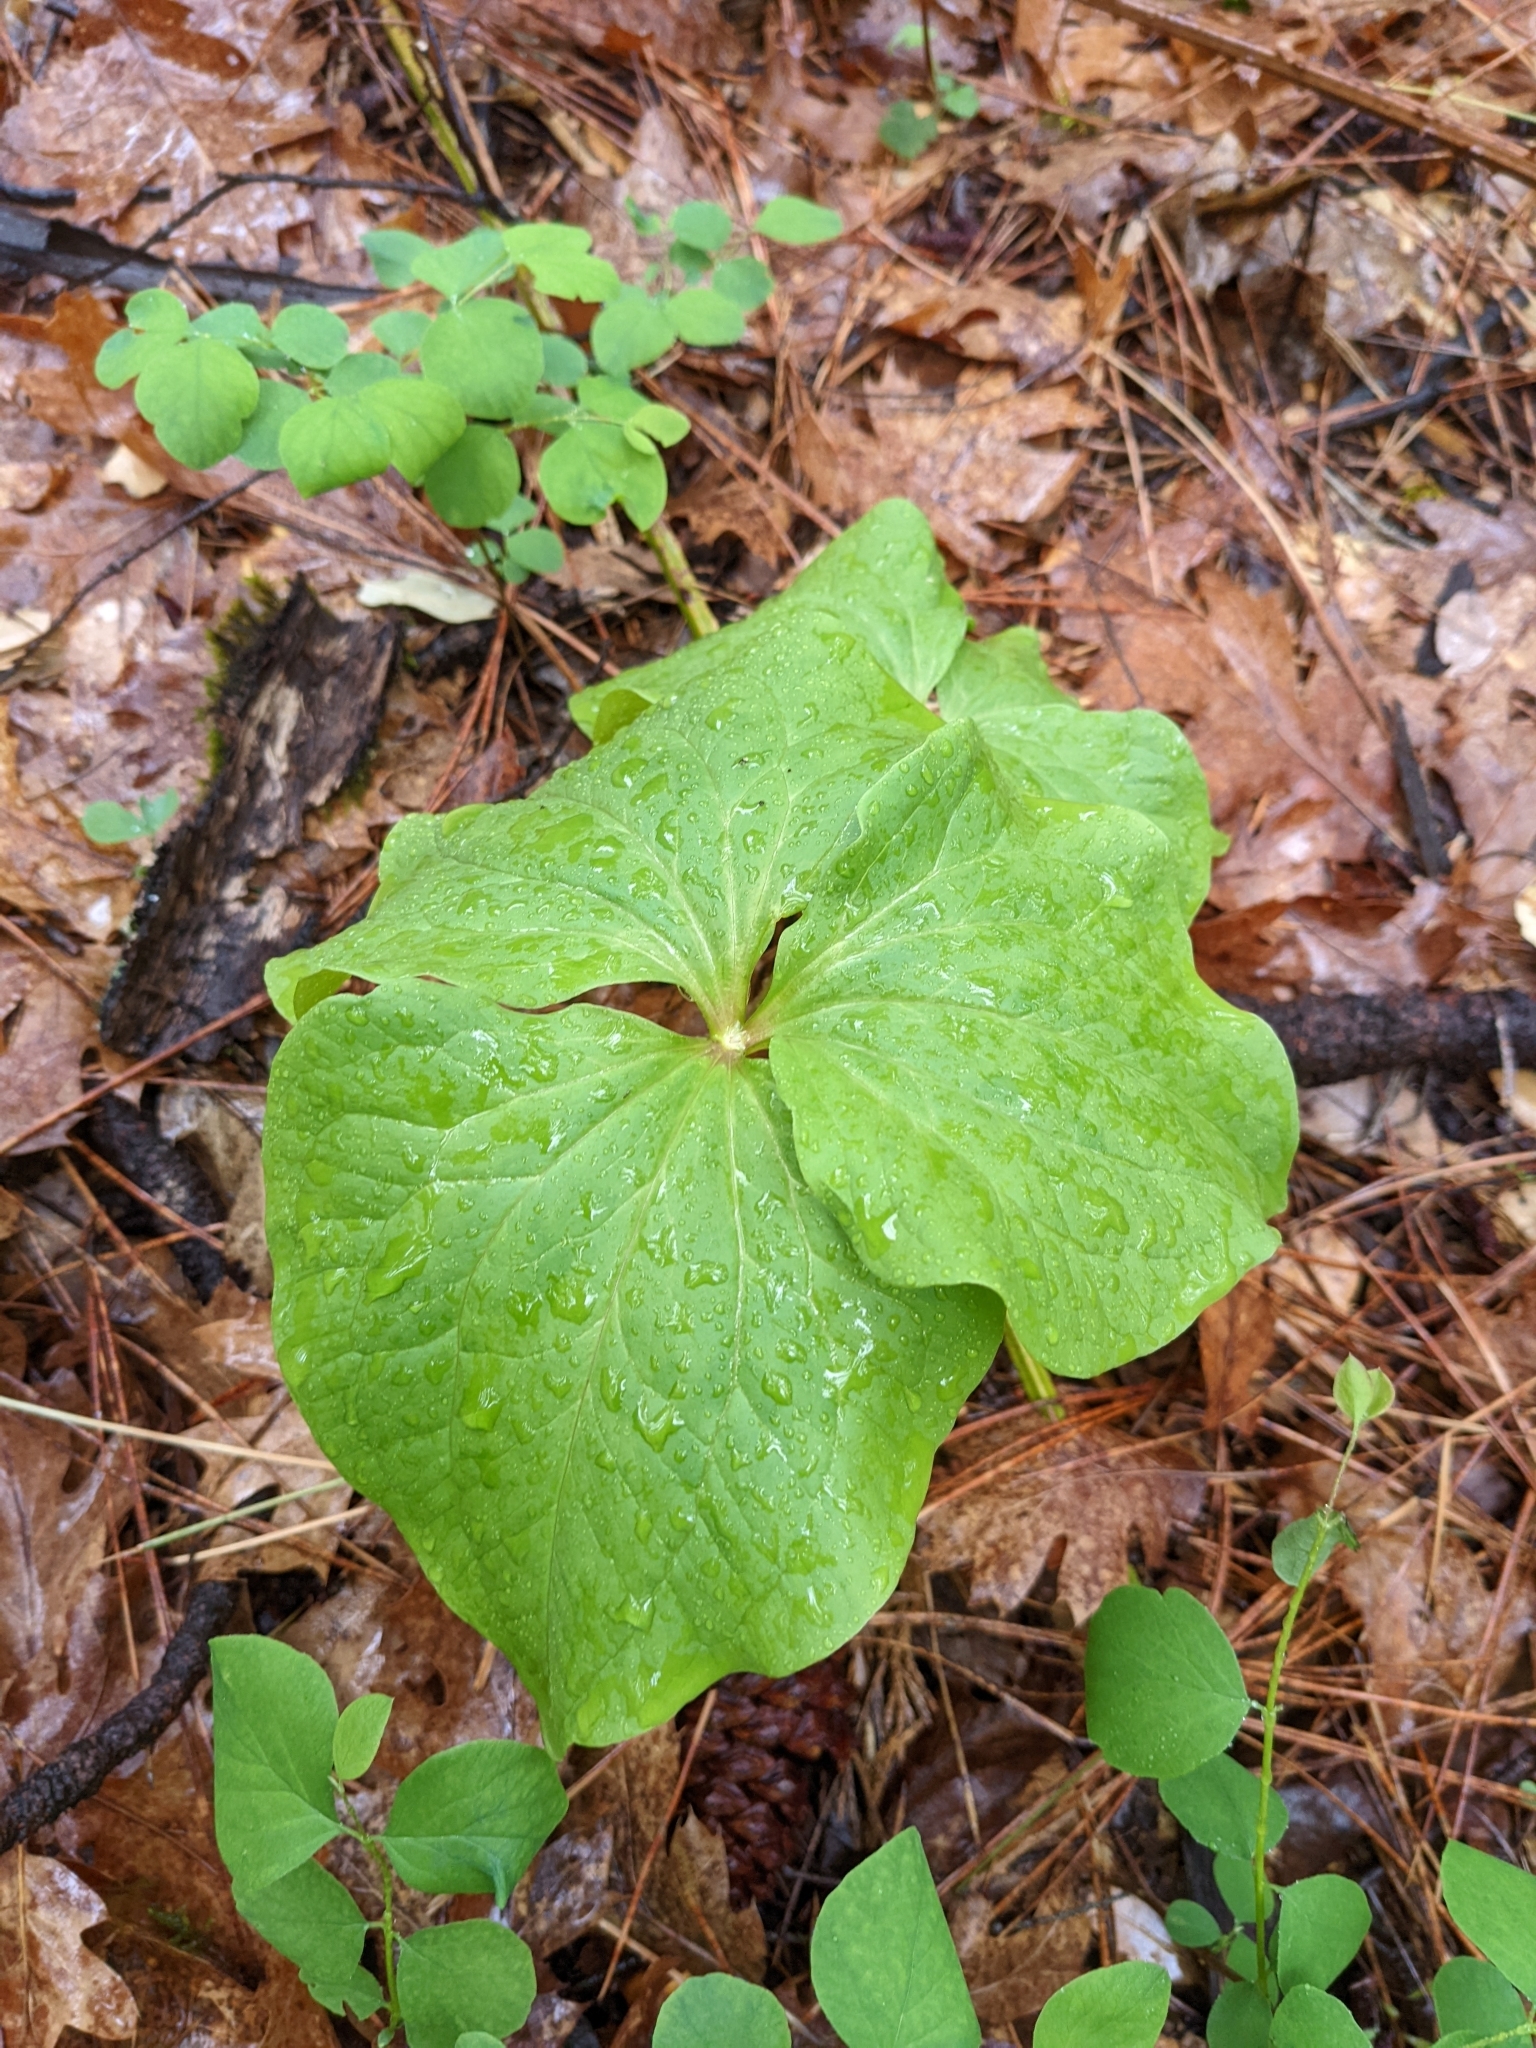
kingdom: Plantae
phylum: Tracheophyta
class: Liliopsida
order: Liliales
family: Melanthiaceae
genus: Trillium
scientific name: Trillium albidum
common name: Freeman's trillium
